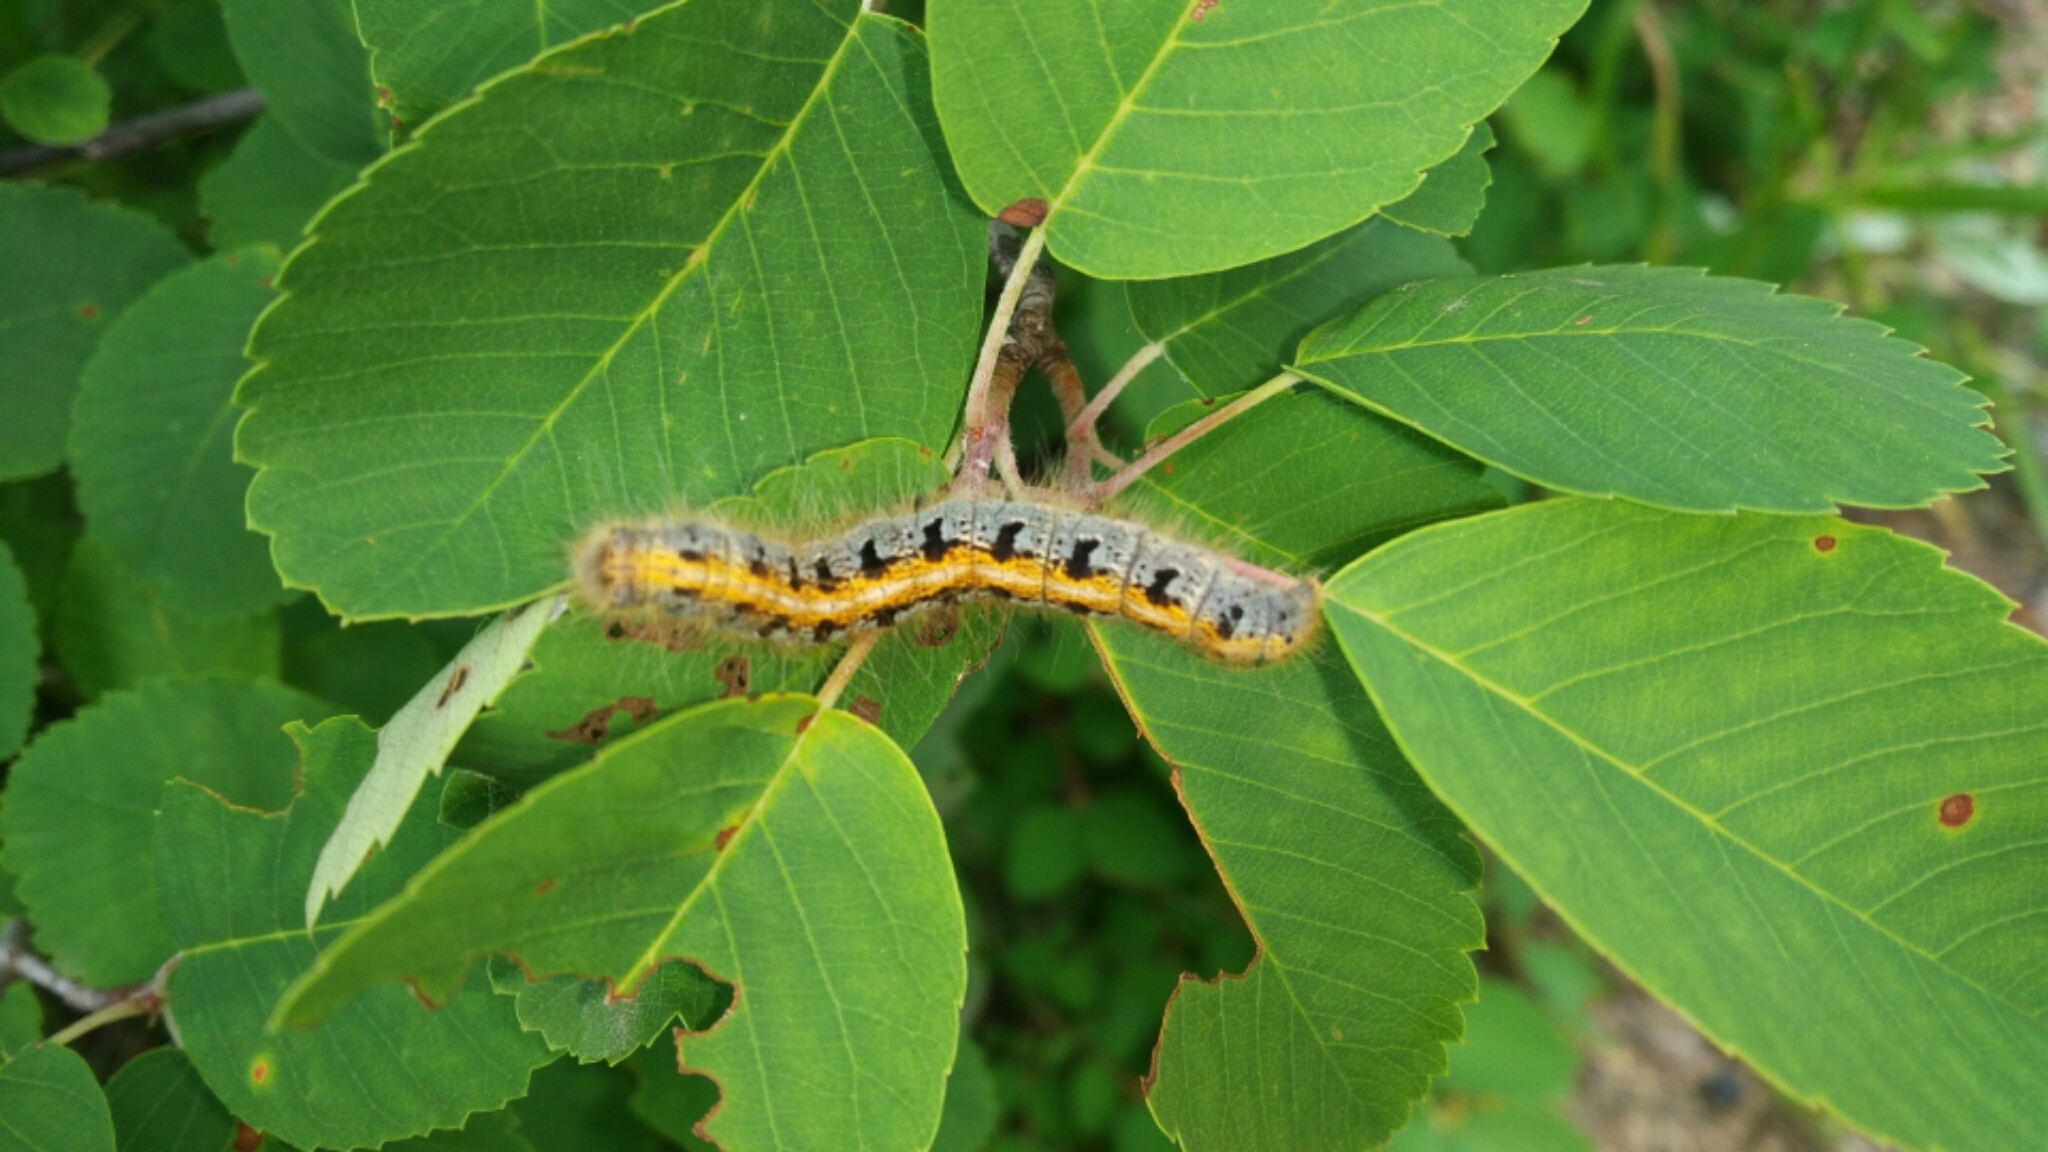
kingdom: Animalia
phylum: Arthropoda
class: Insecta
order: Lepidoptera
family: Lasiocampidae
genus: Malacosoma
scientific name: Malacosoma californica
